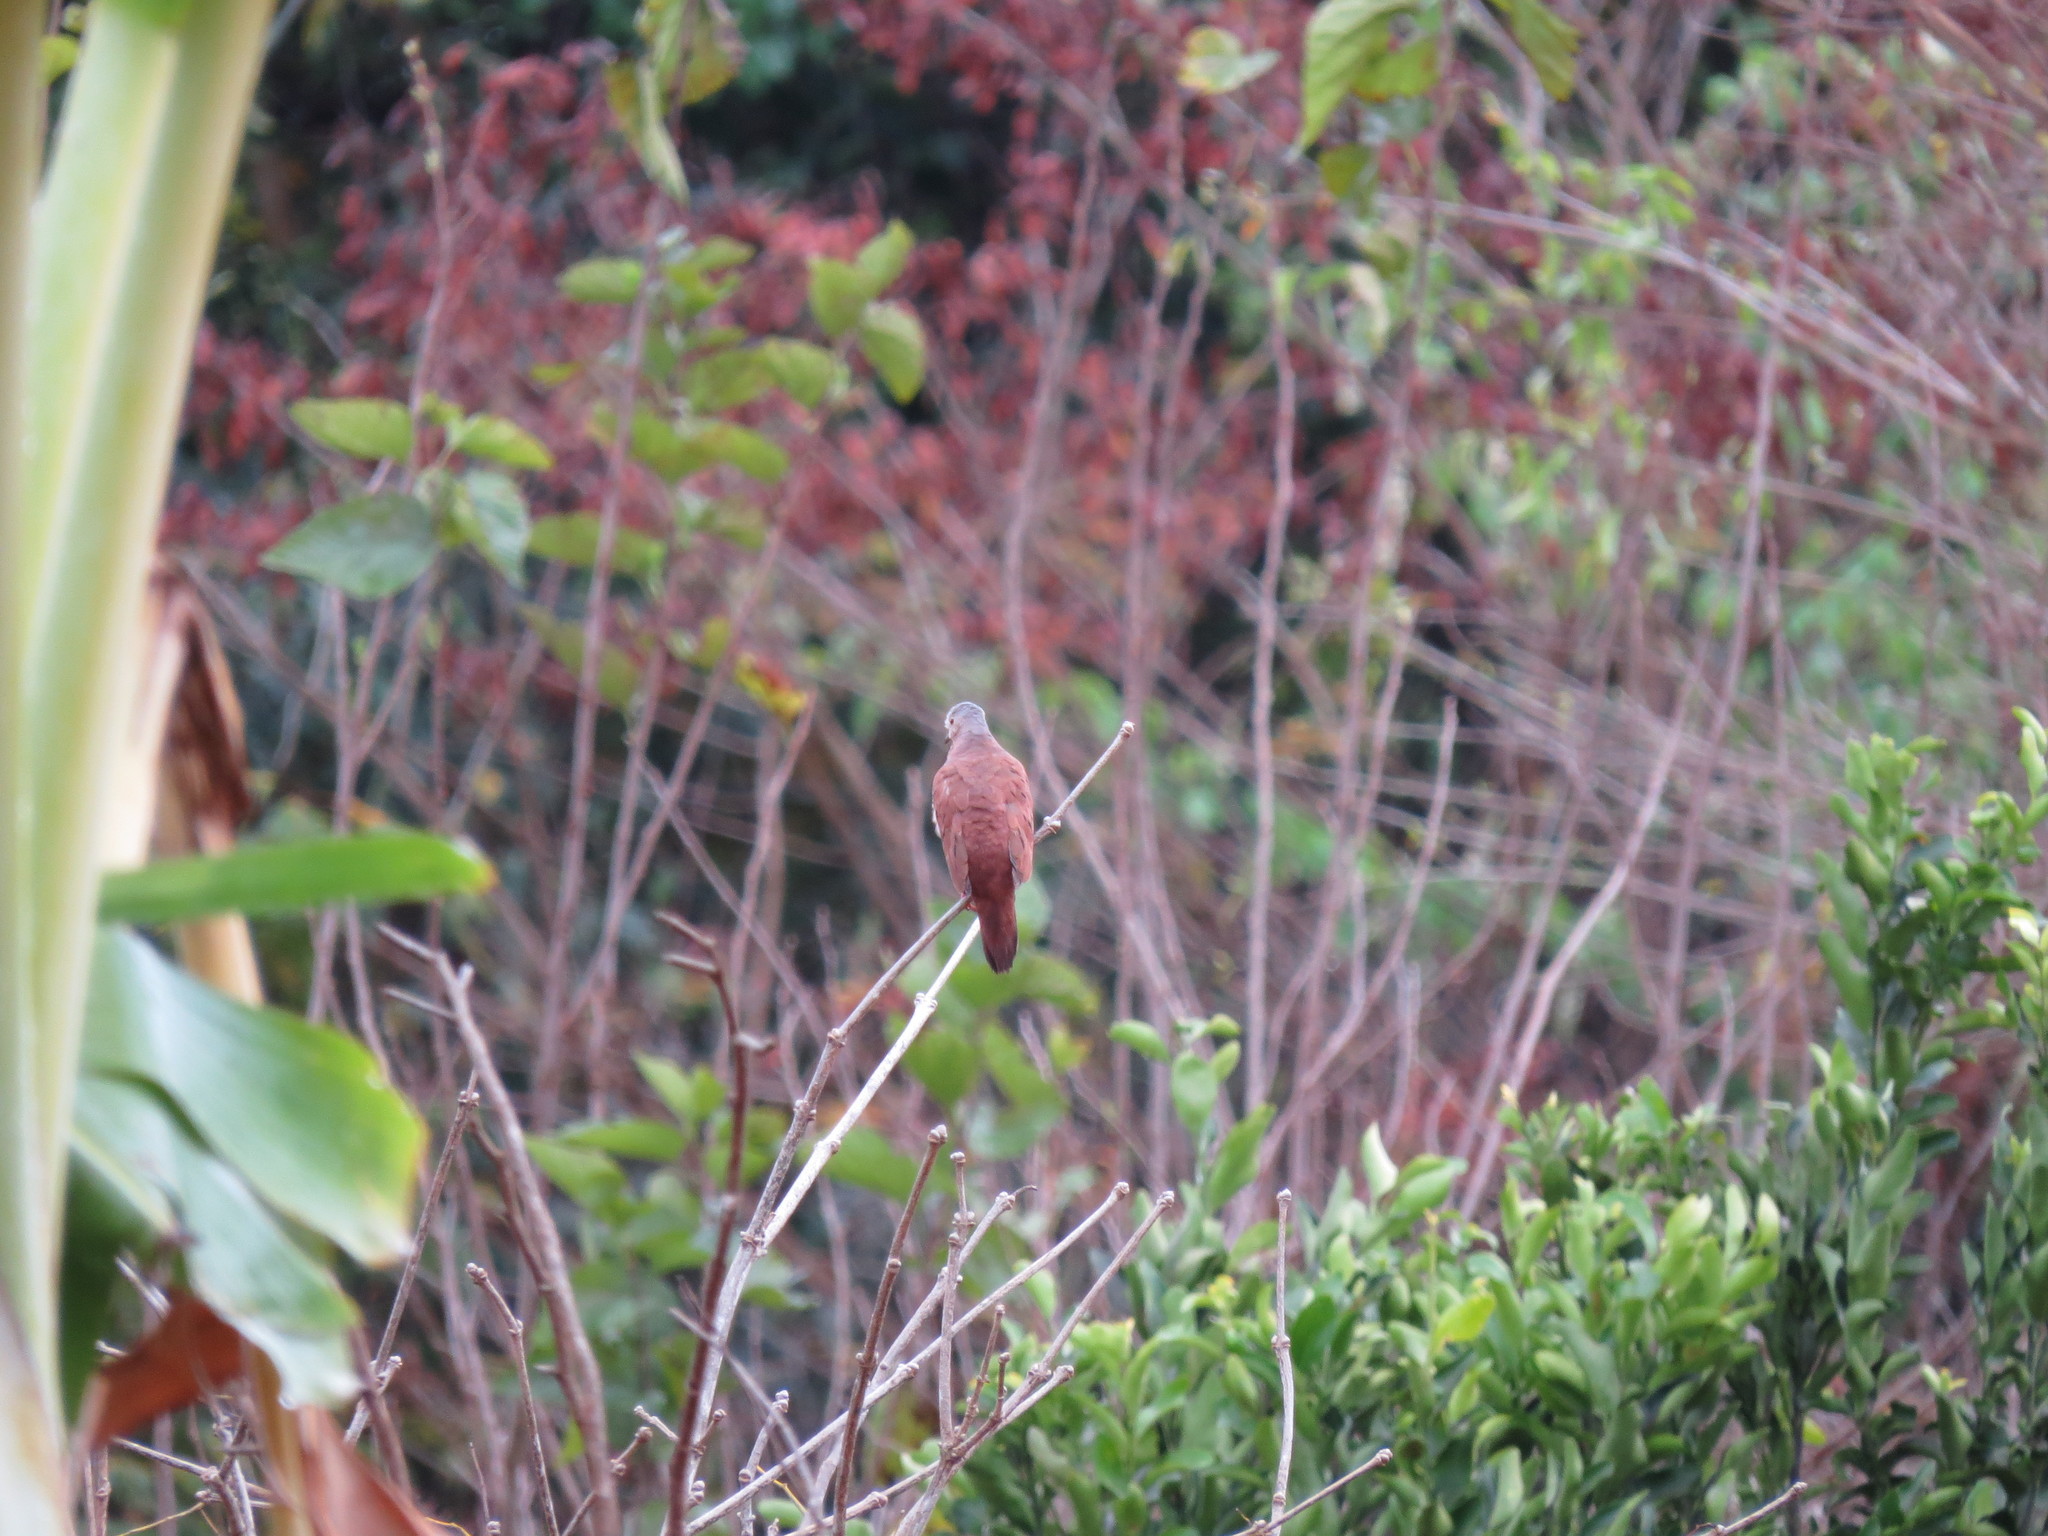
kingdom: Animalia
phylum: Chordata
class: Aves
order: Columbiformes
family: Columbidae
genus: Columbina
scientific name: Columbina talpacoti
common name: Ruddy ground dove
